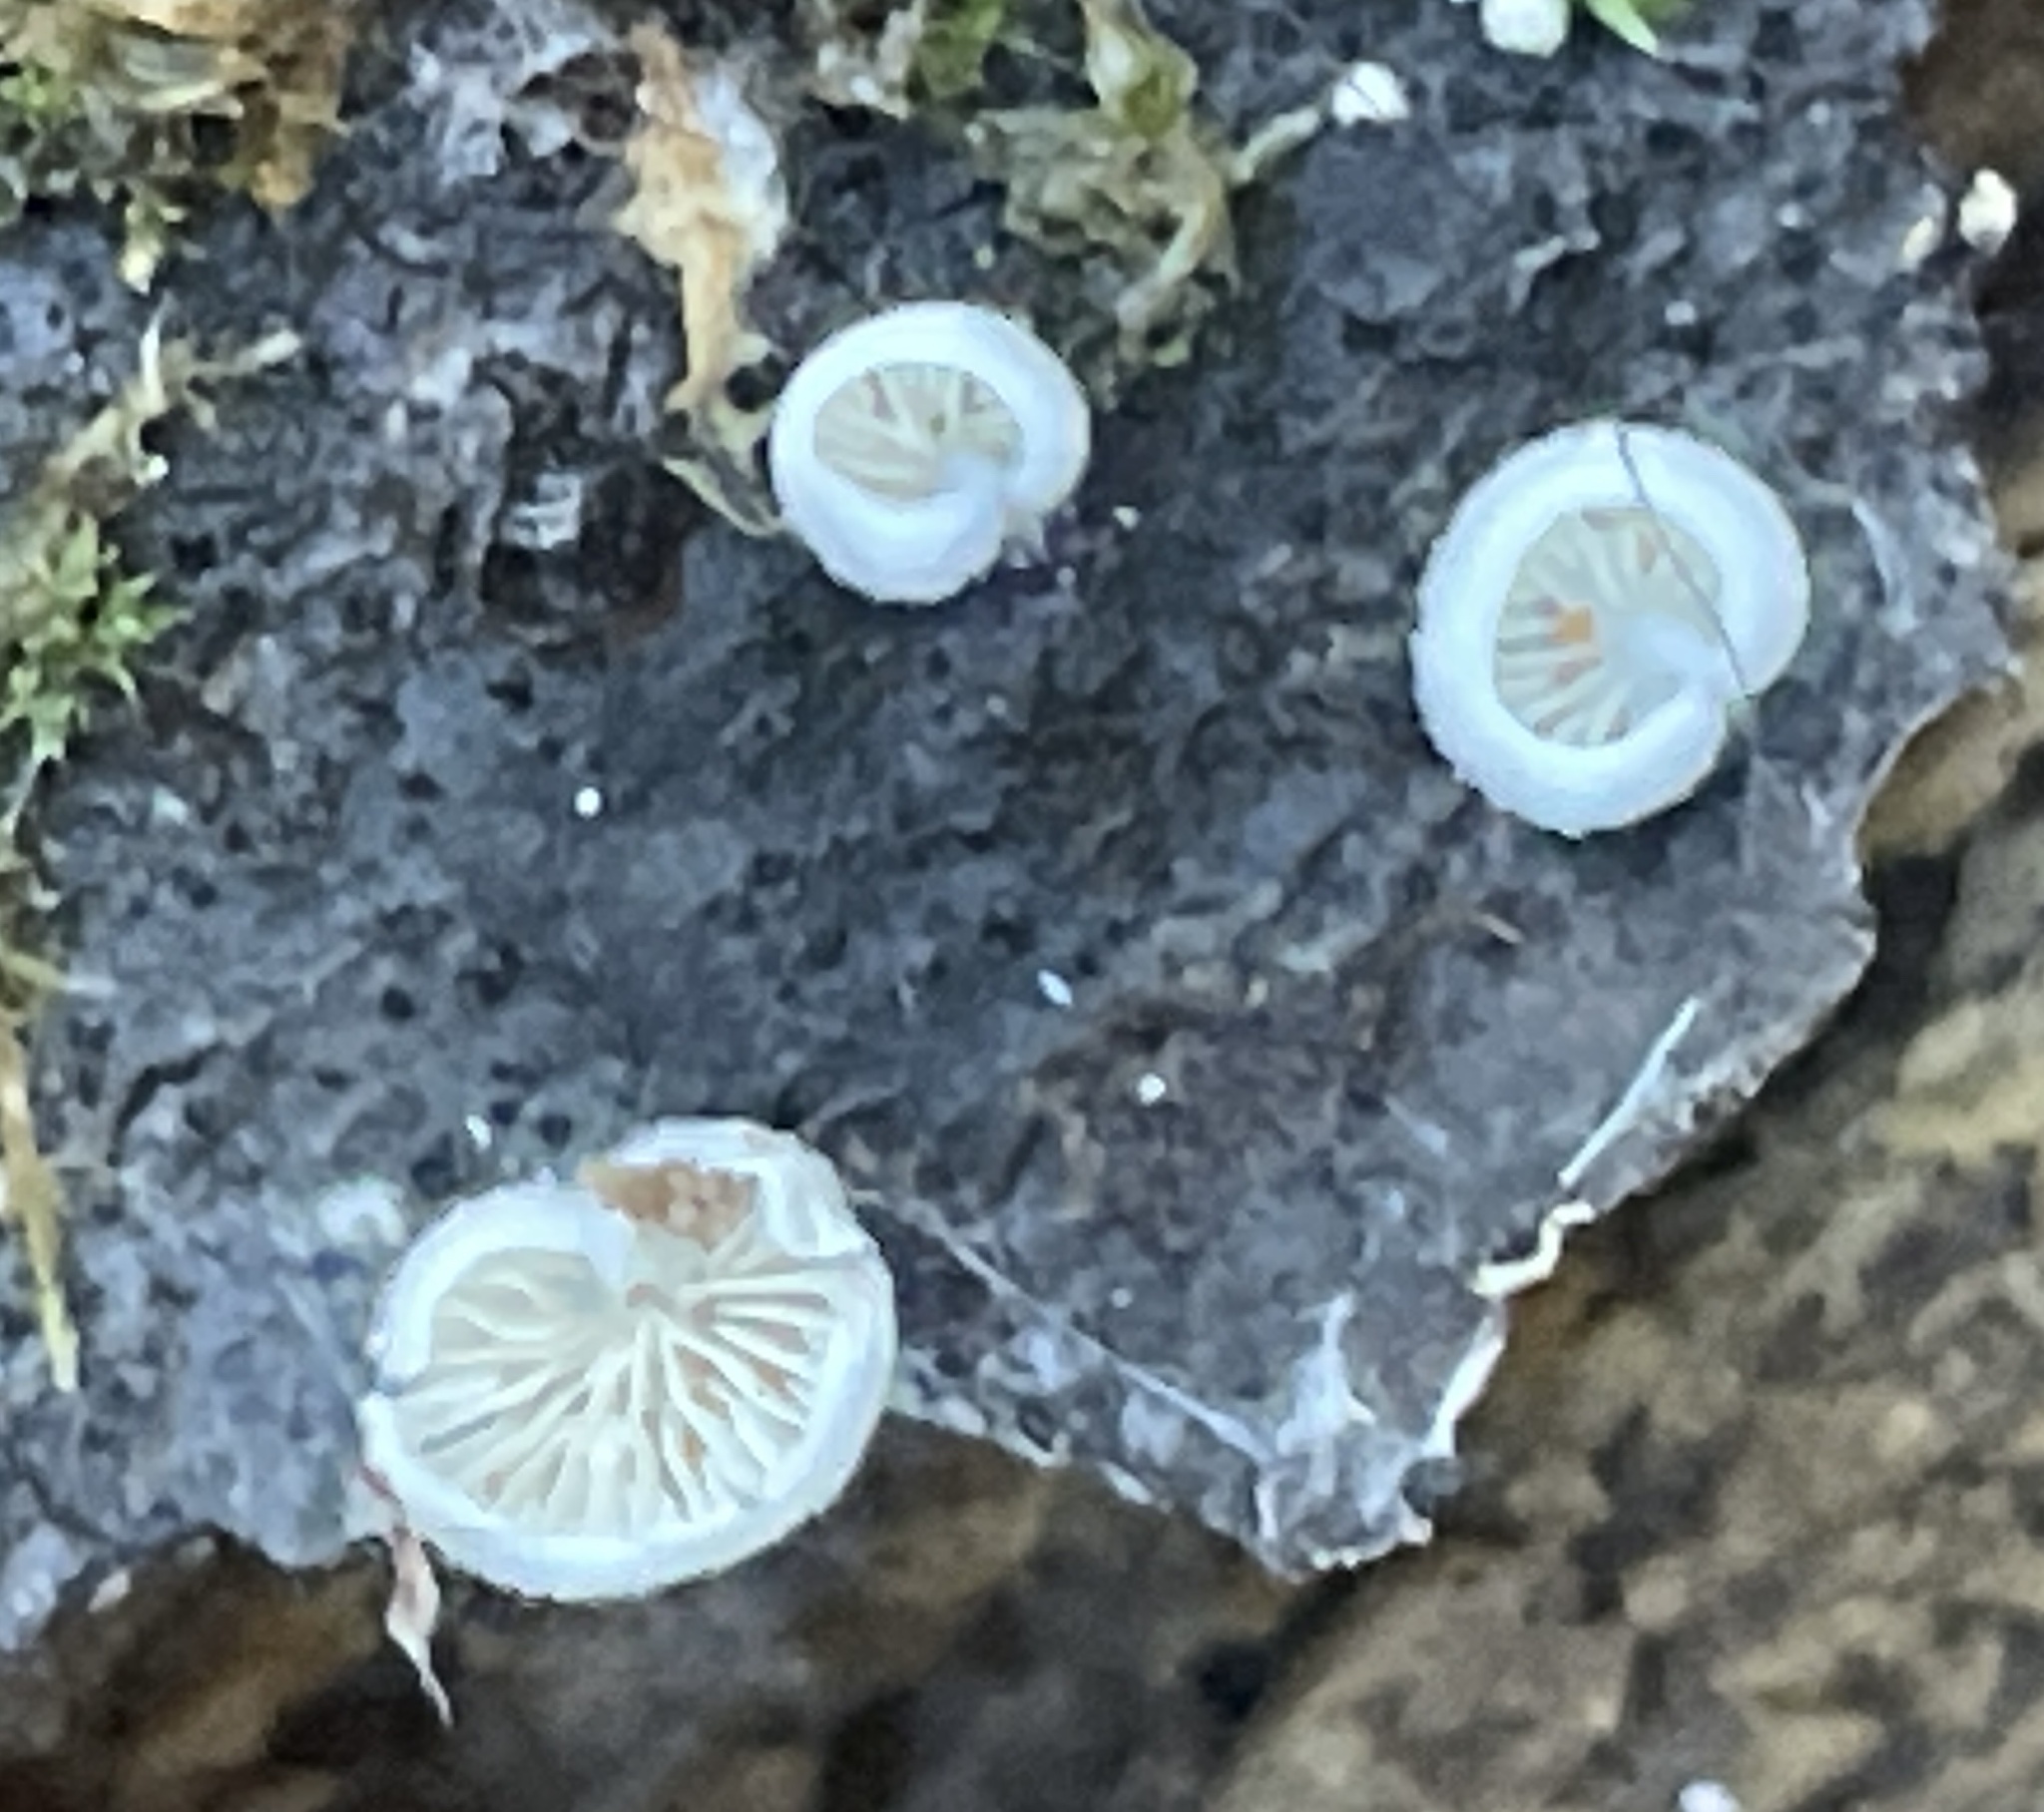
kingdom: Fungi
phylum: Basidiomycota
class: Agaricomycetes
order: Agaricales
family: Pleurotaceae
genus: Hohenbuehelia
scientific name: Hohenbuehelia mastrucata
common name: Woolly oyster
